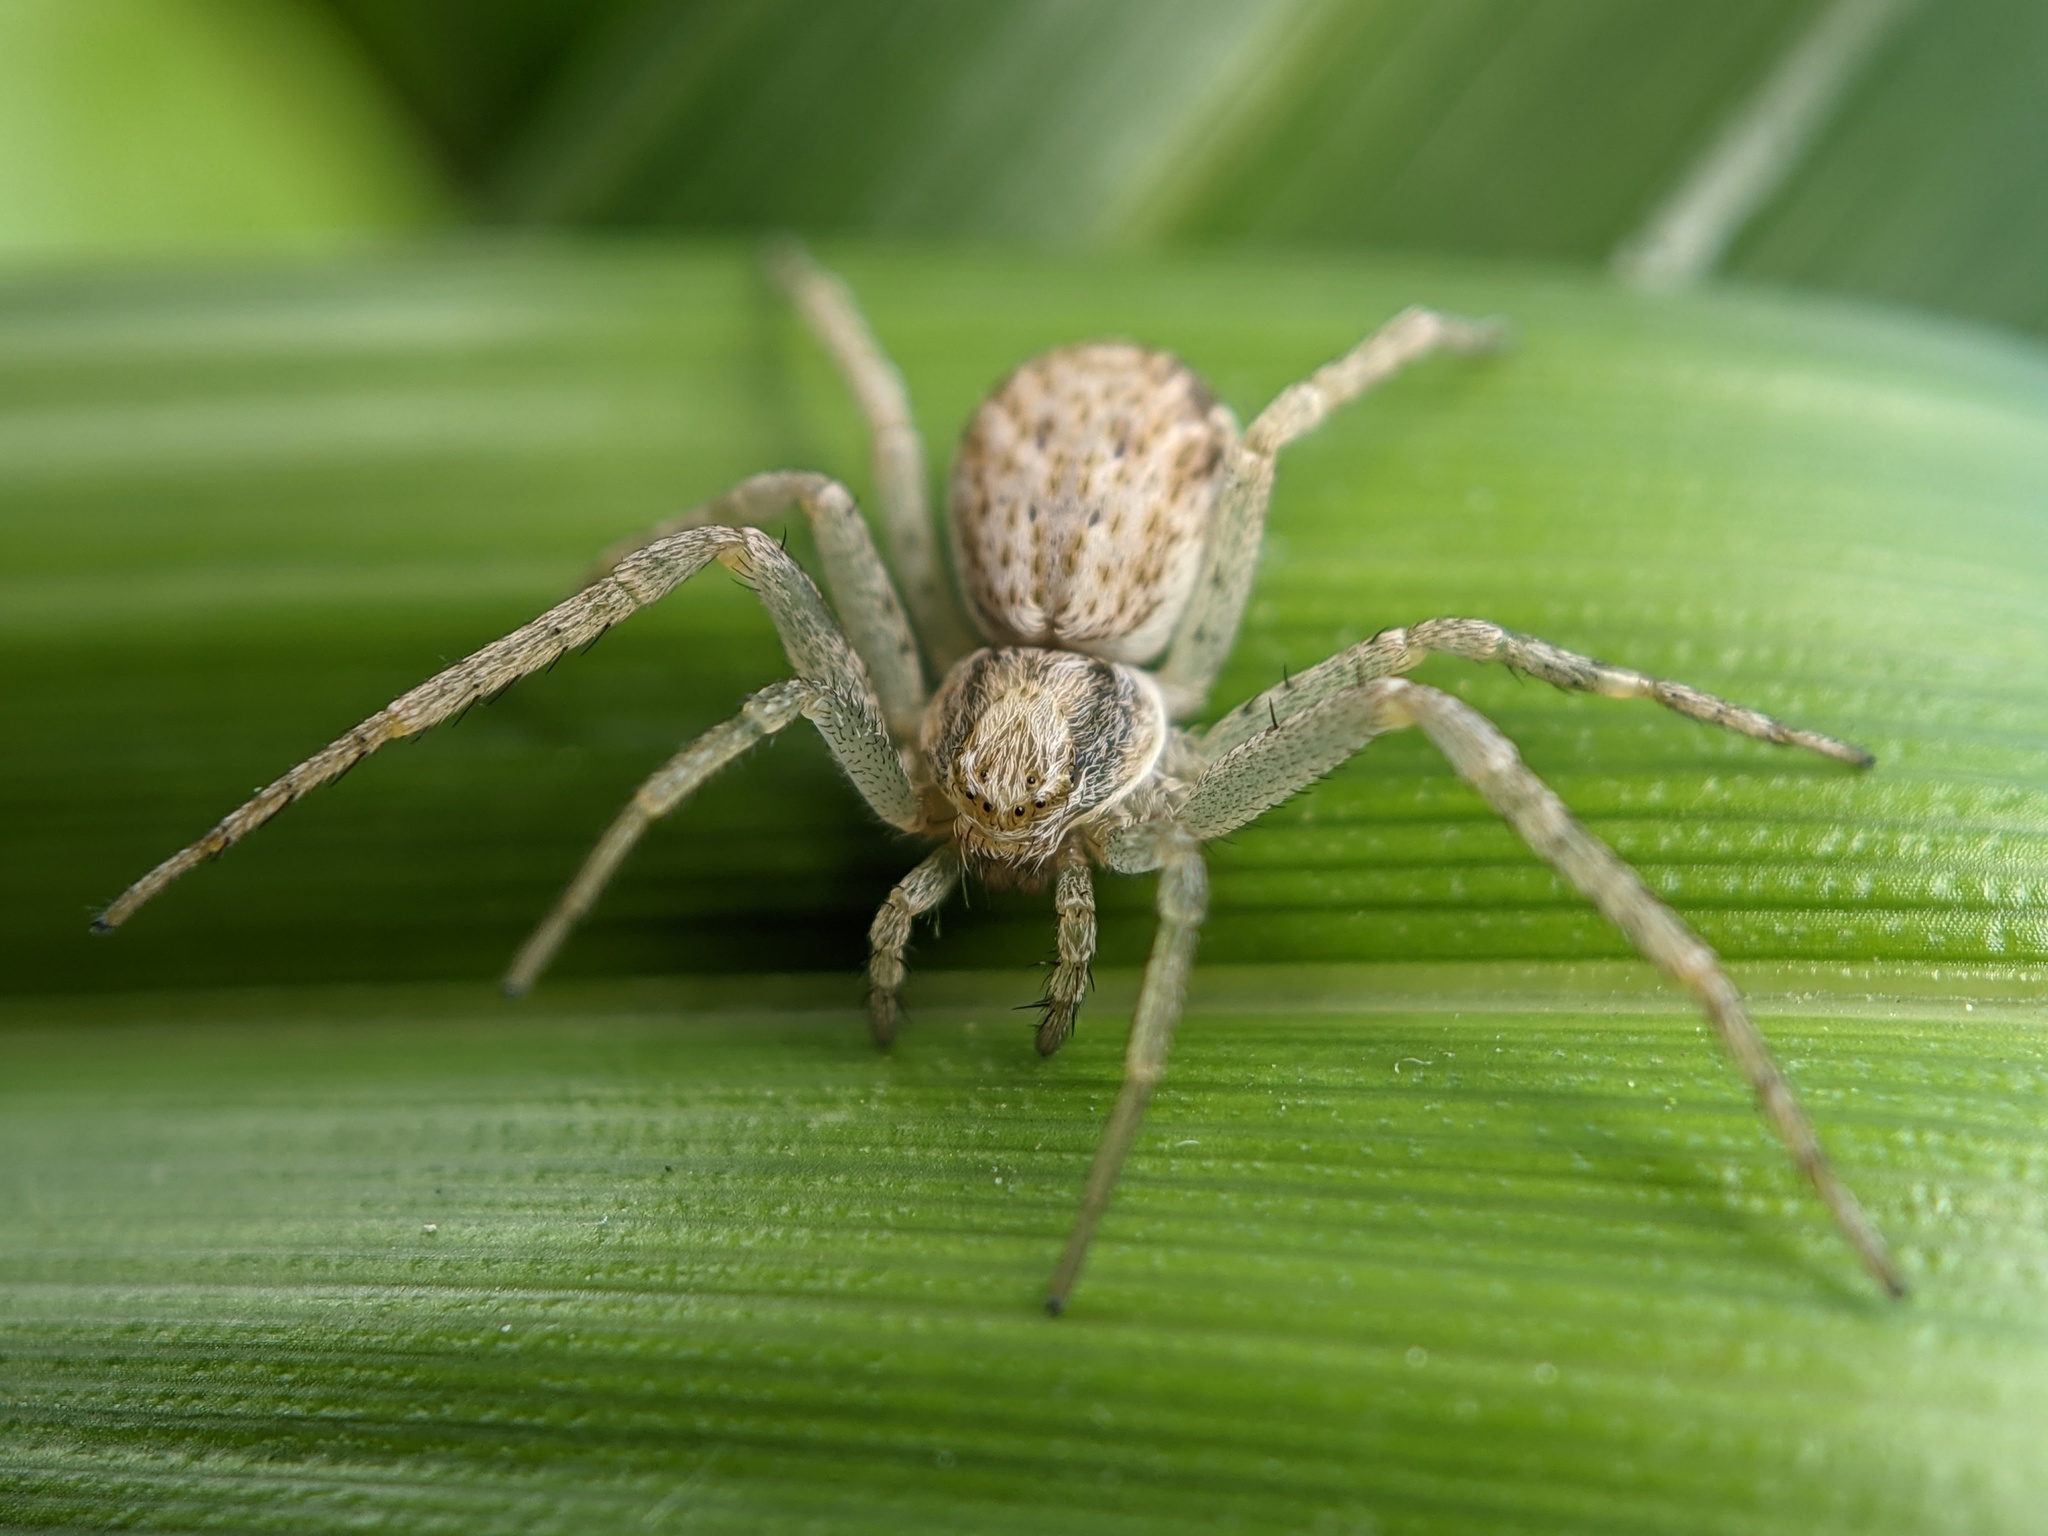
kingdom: Animalia
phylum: Arthropoda
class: Arachnida
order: Araneae
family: Philodromidae
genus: Philodromus
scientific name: Philodromus dispar
